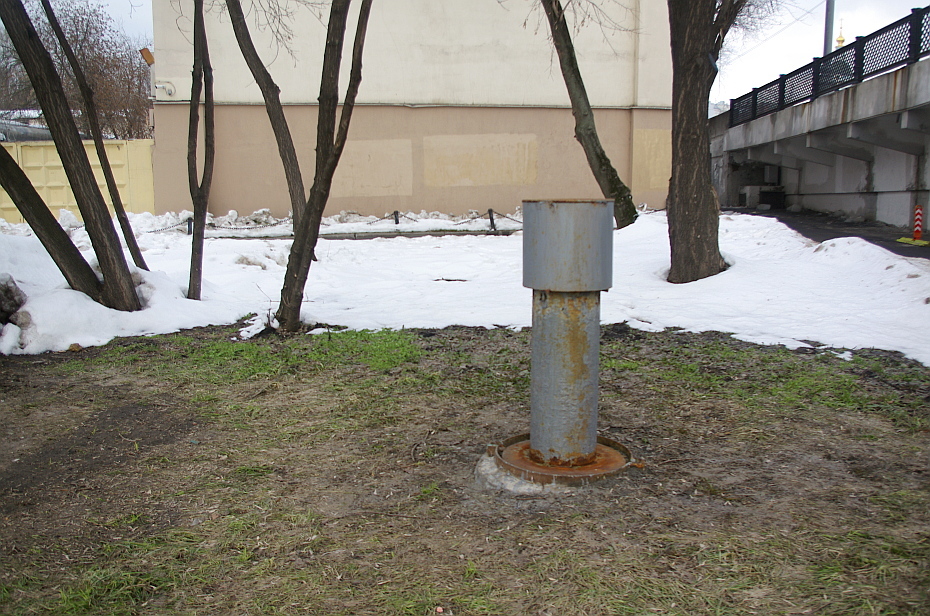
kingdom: Plantae
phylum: Tracheophyta
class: Magnoliopsida
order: Apiales
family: Apiaceae
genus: Pimpinella
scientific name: Pimpinella saxifraga
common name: Burnet-saxifrage
